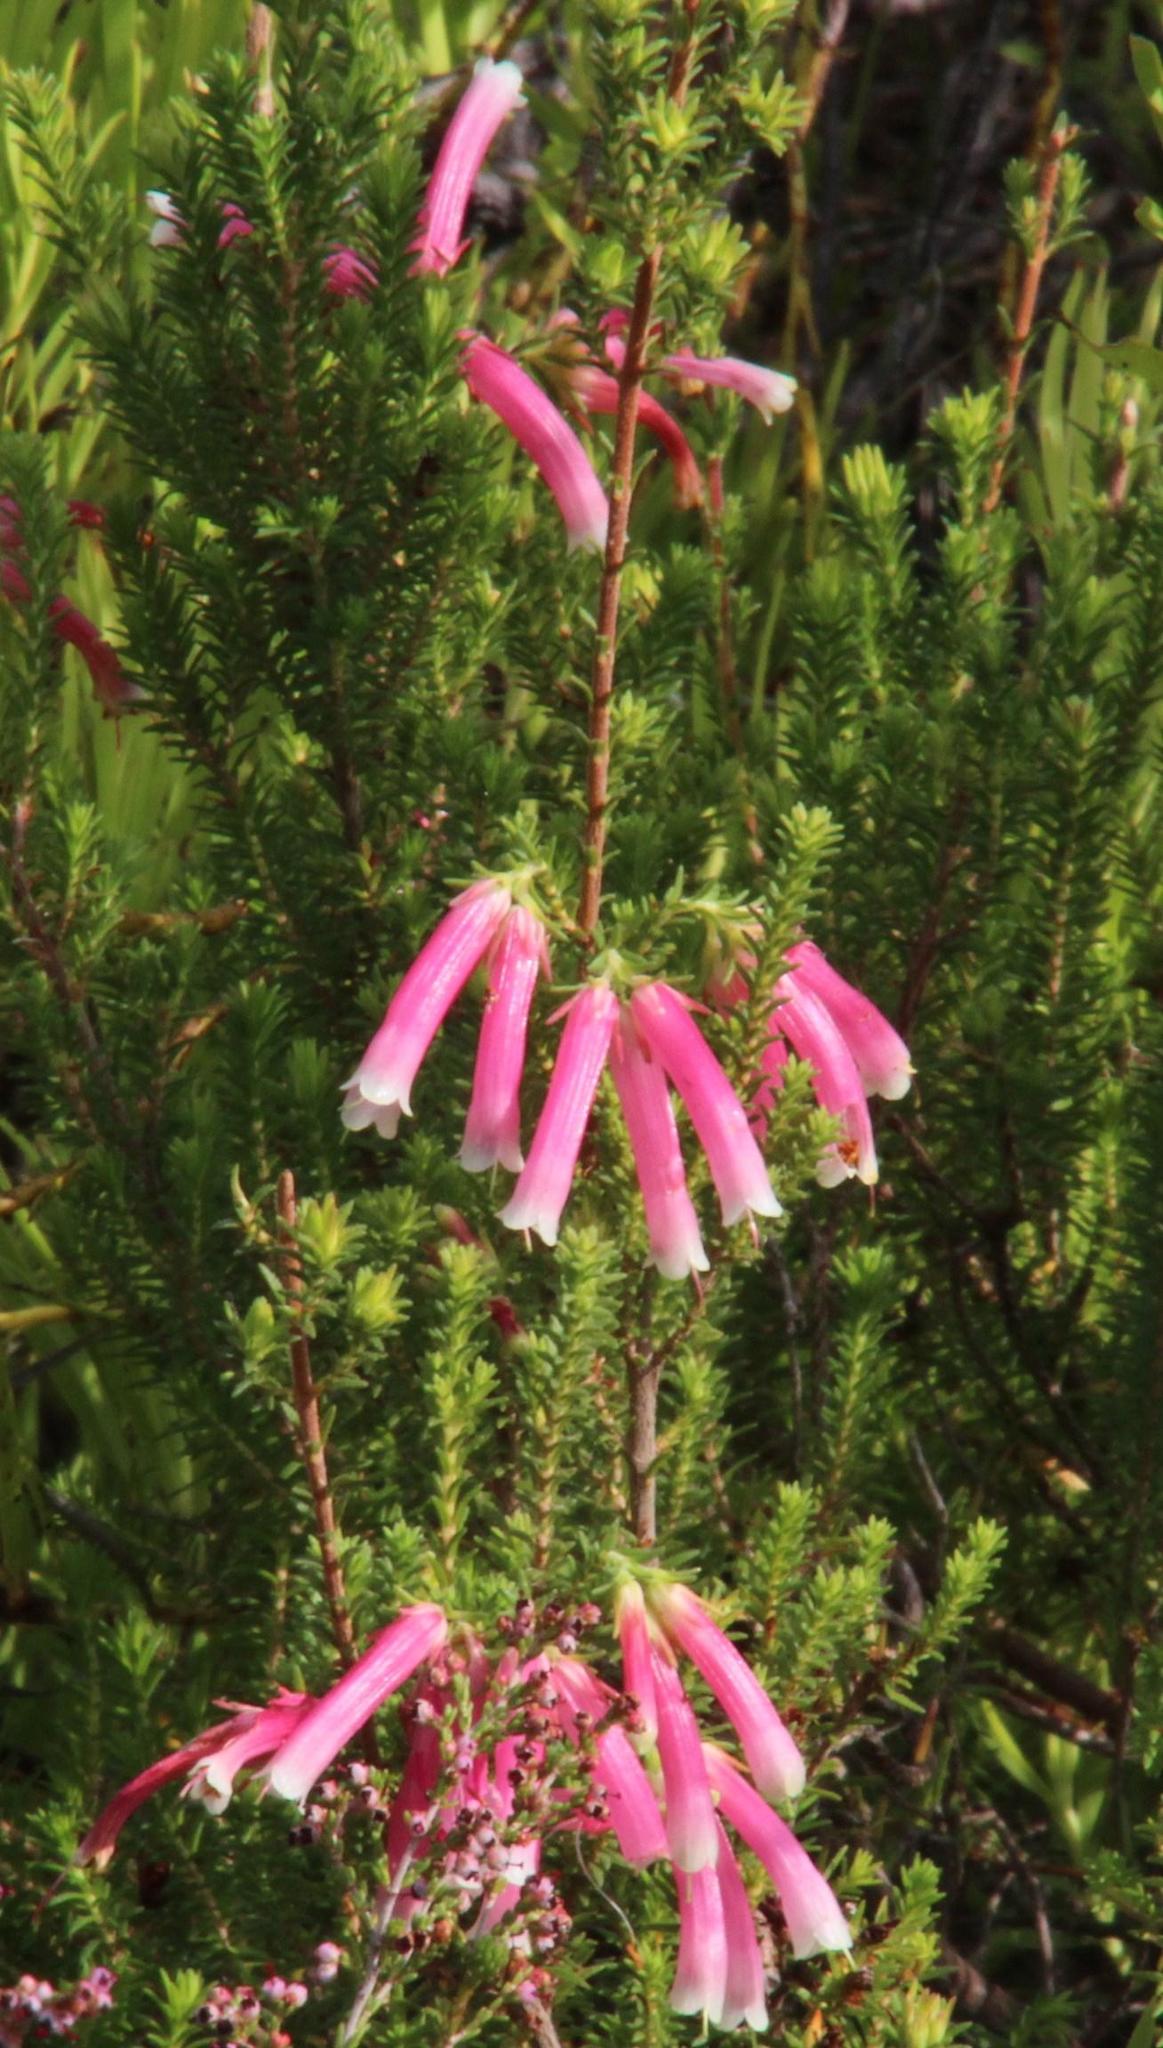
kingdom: Plantae
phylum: Tracheophyta
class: Magnoliopsida
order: Ericales
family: Ericaceae
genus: Erica
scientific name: Erica versicolor
